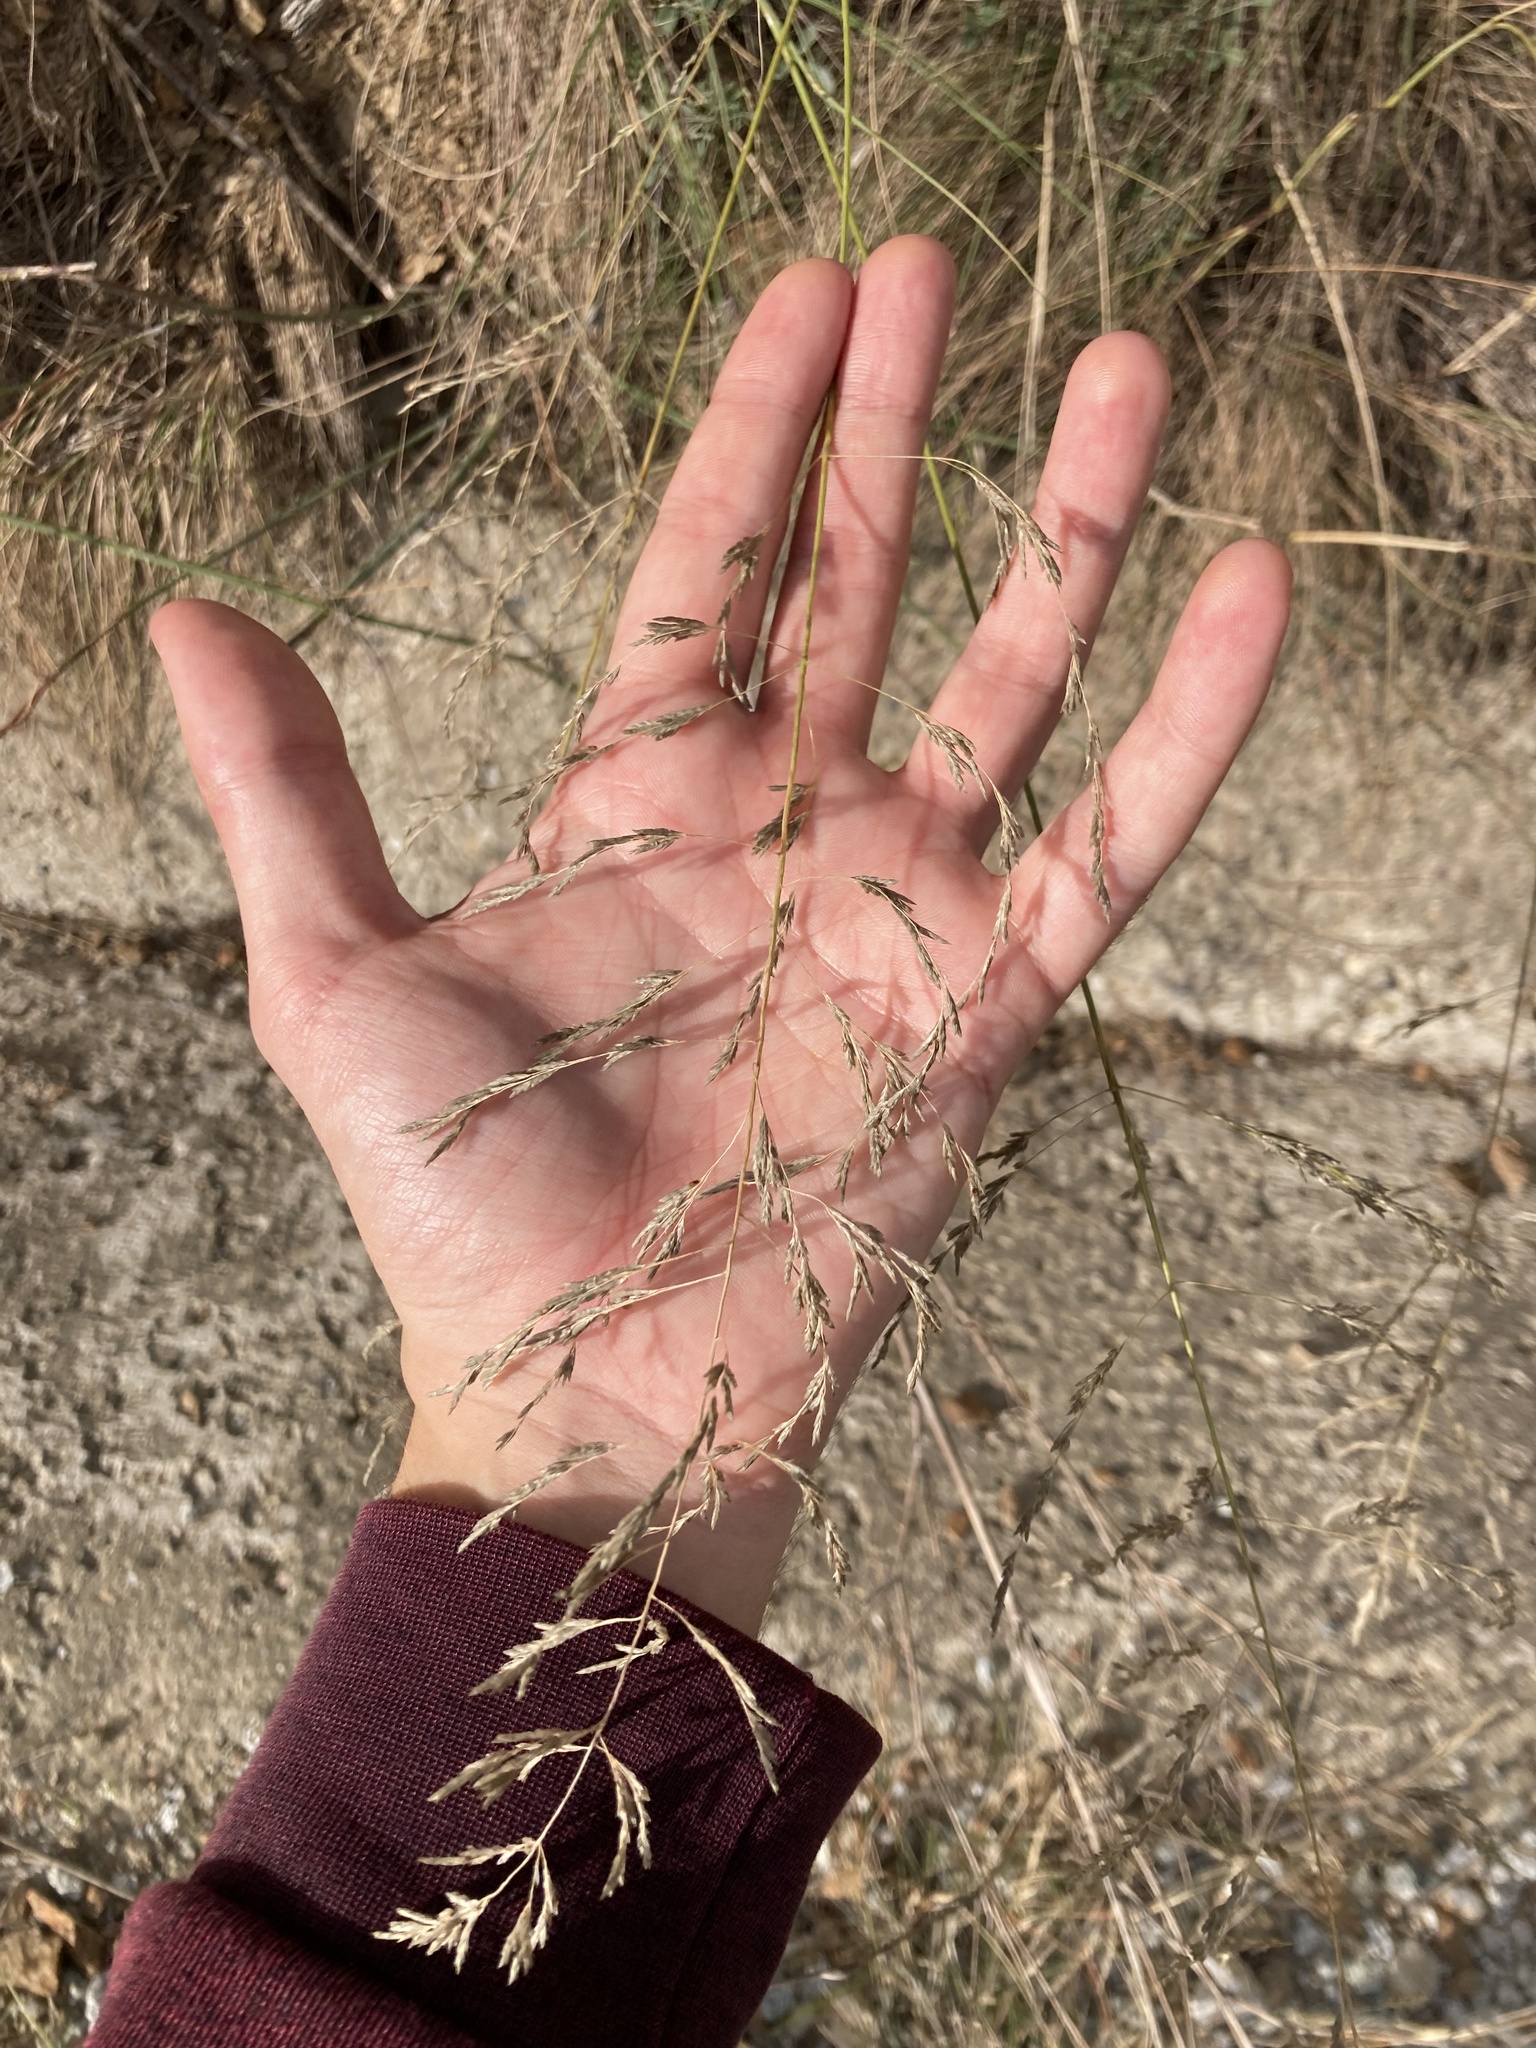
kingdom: Plantae
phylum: Tracheophyta
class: Liliopsida
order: Poales
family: Poaceae
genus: Eragrostis
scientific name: Eragrostis curvula
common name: African love-grass
